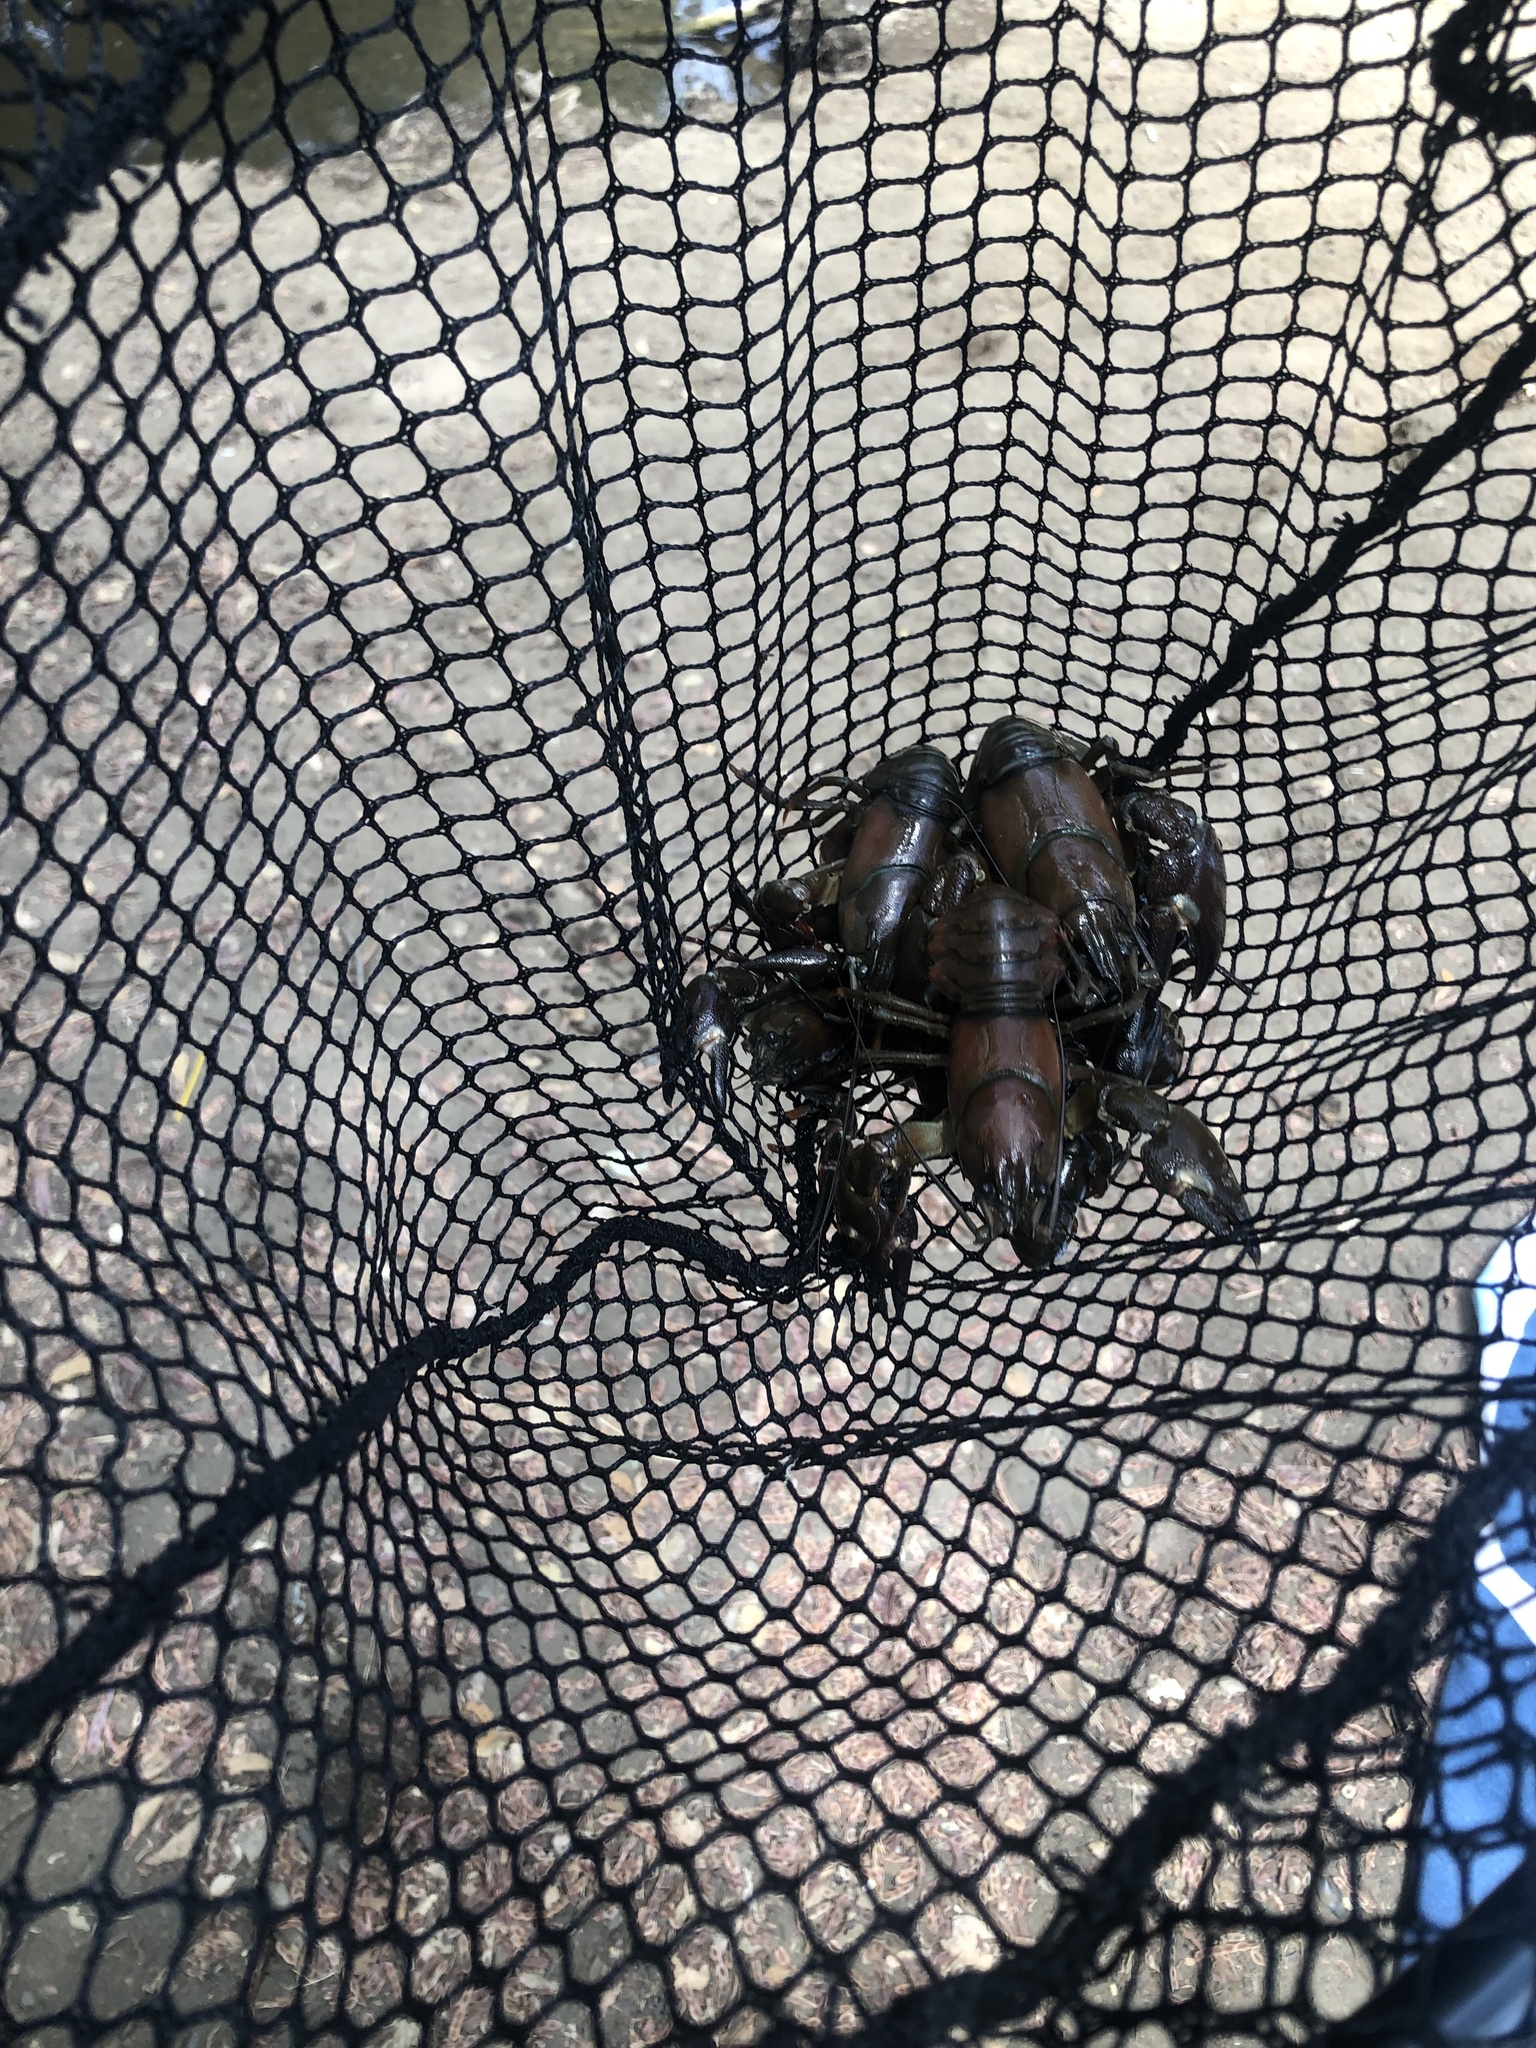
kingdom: Animalia
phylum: Arthropoda
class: Malacostraca
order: Decapoda
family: Astacidae
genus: Pacifastacus
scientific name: Pacifastacus leniusculus
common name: Signal crayfish
